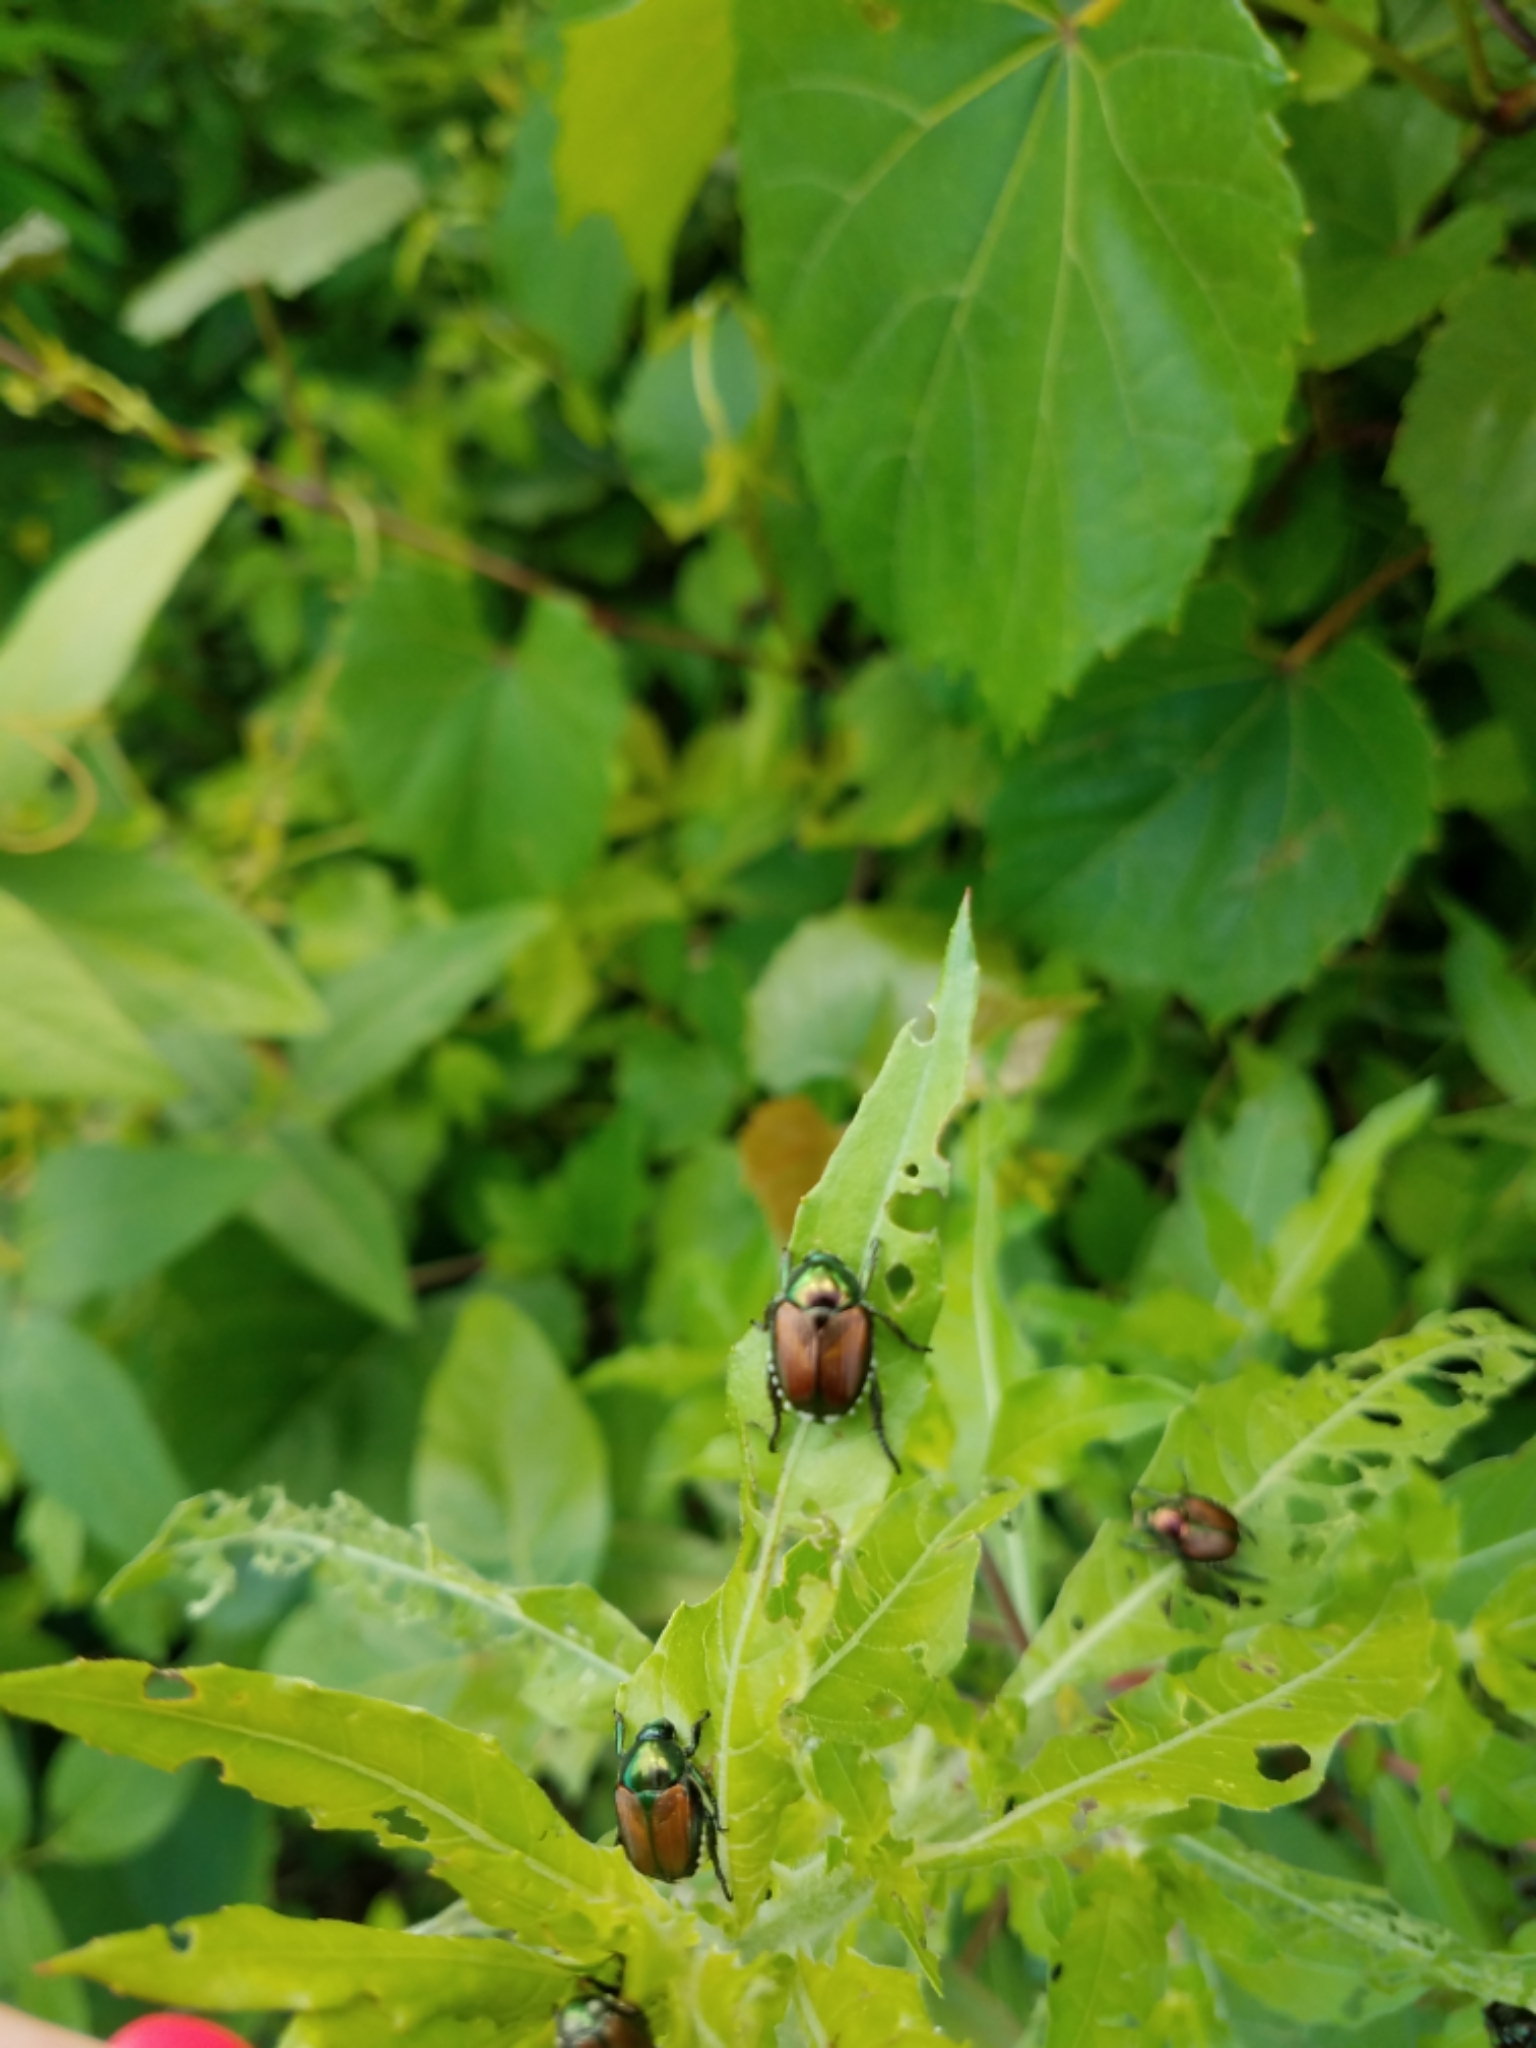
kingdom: Animalia
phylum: Arthropoda
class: Insecta
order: Coleoptera
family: Scarabaeidae
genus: Popillia
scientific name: Popillia japonica
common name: Japanese beetle
